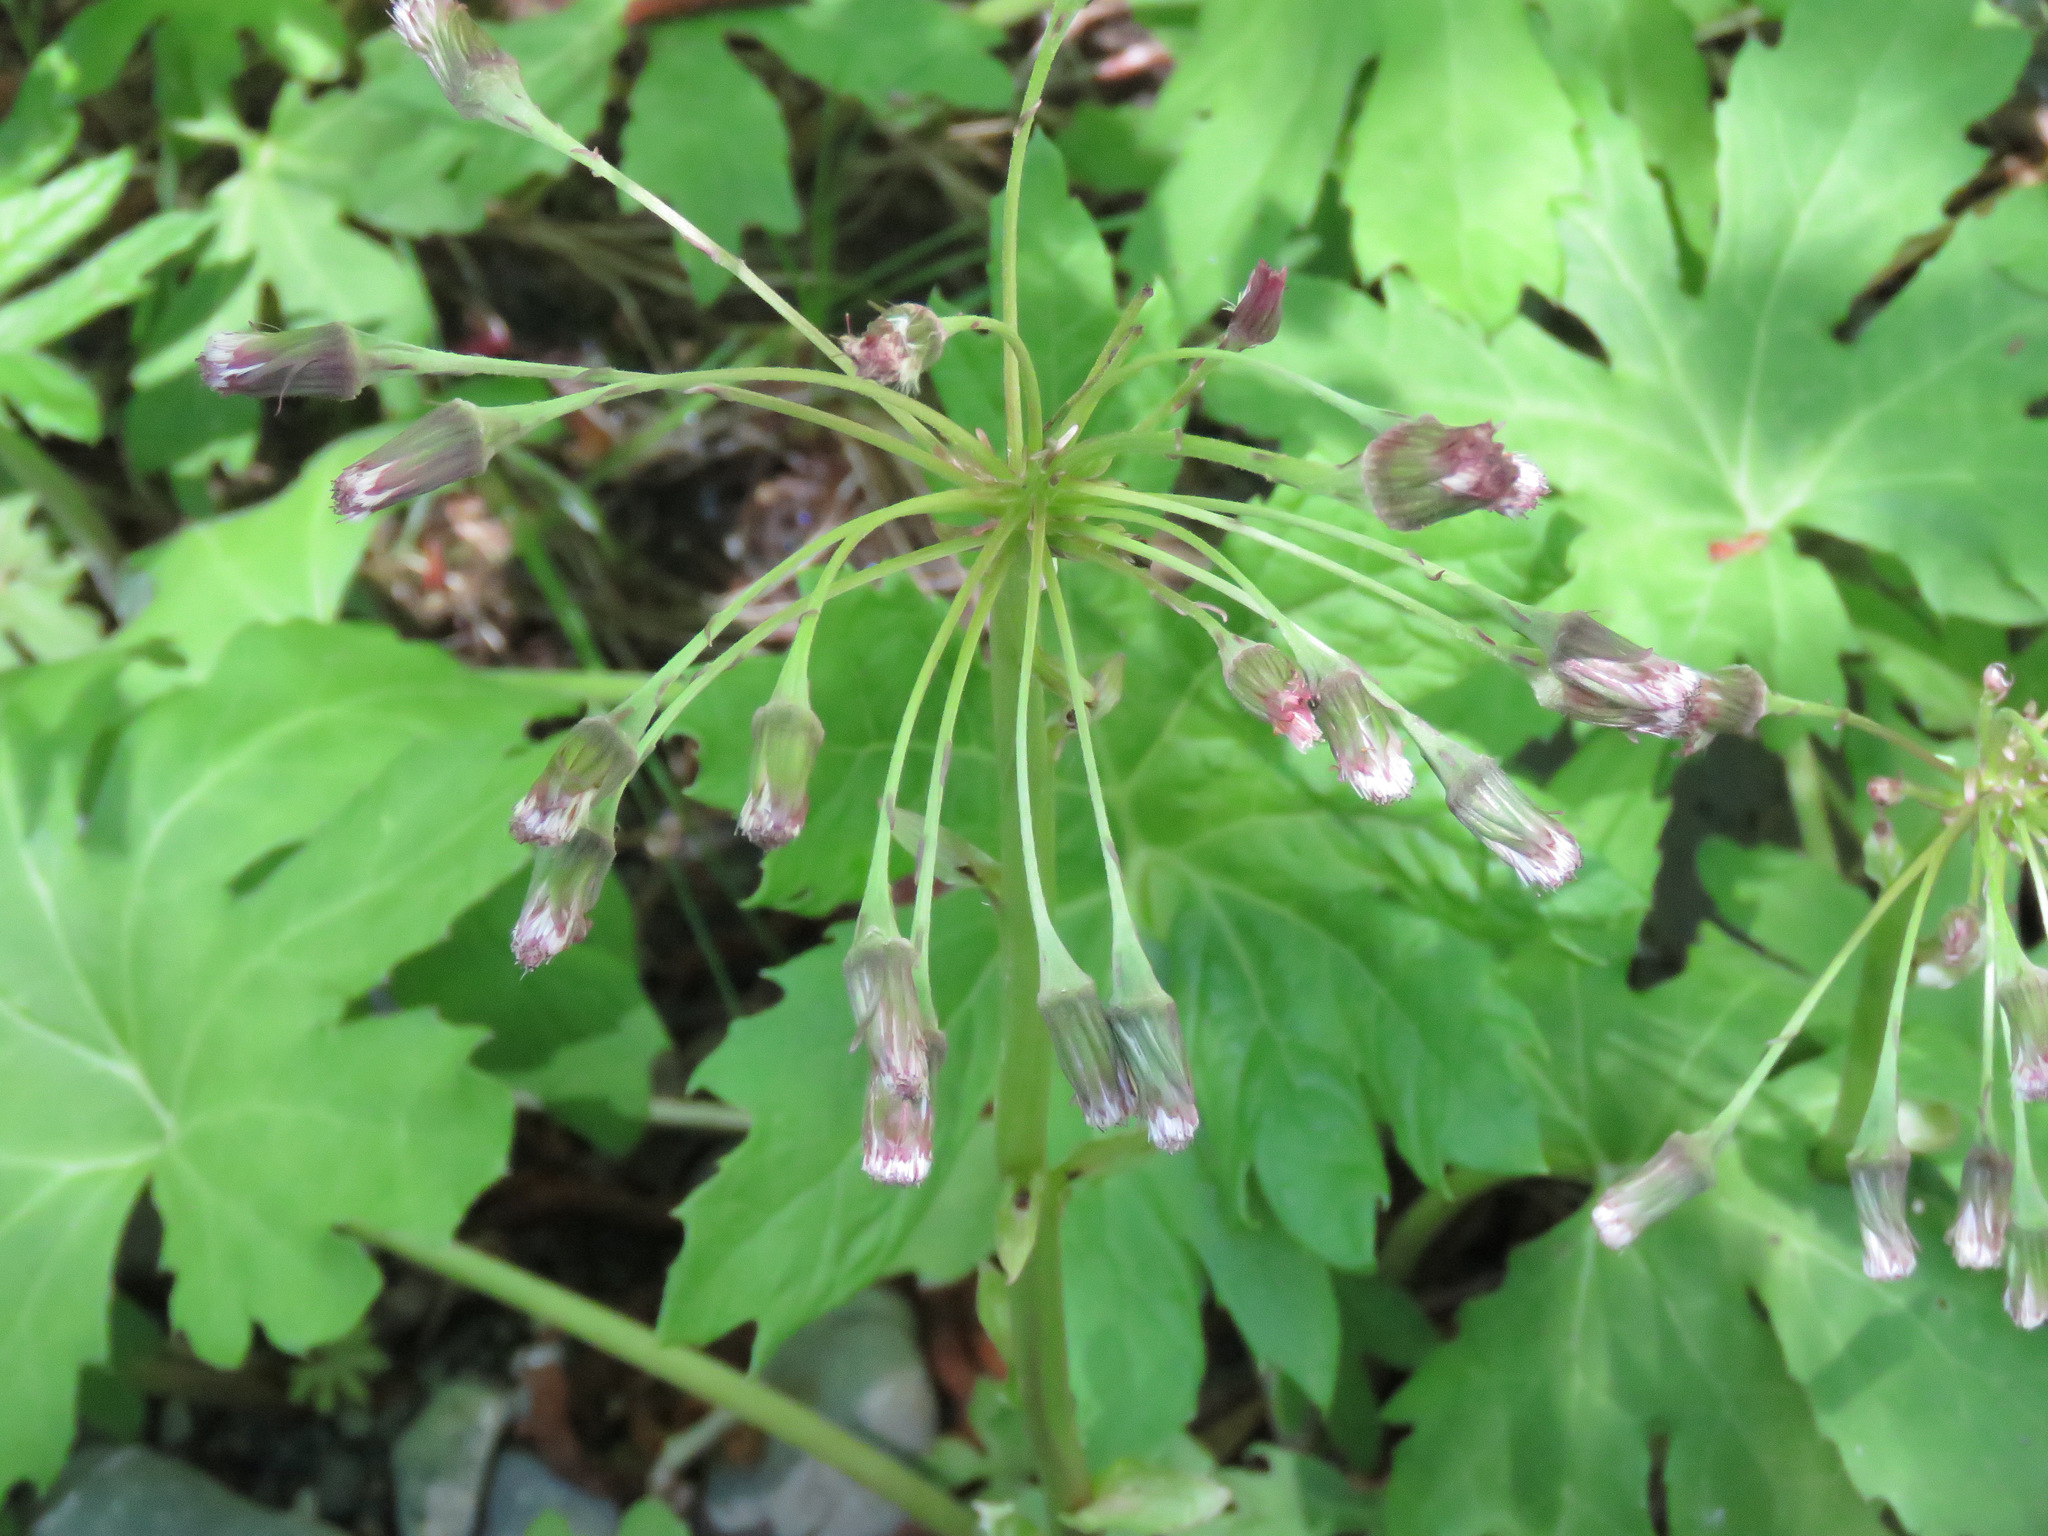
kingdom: Plantae
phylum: Tracheophyta
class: Magnoliopsida
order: Asterales
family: Asteraceae
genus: Petasites
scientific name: Petasites frigidus
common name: Arctic butterbur
